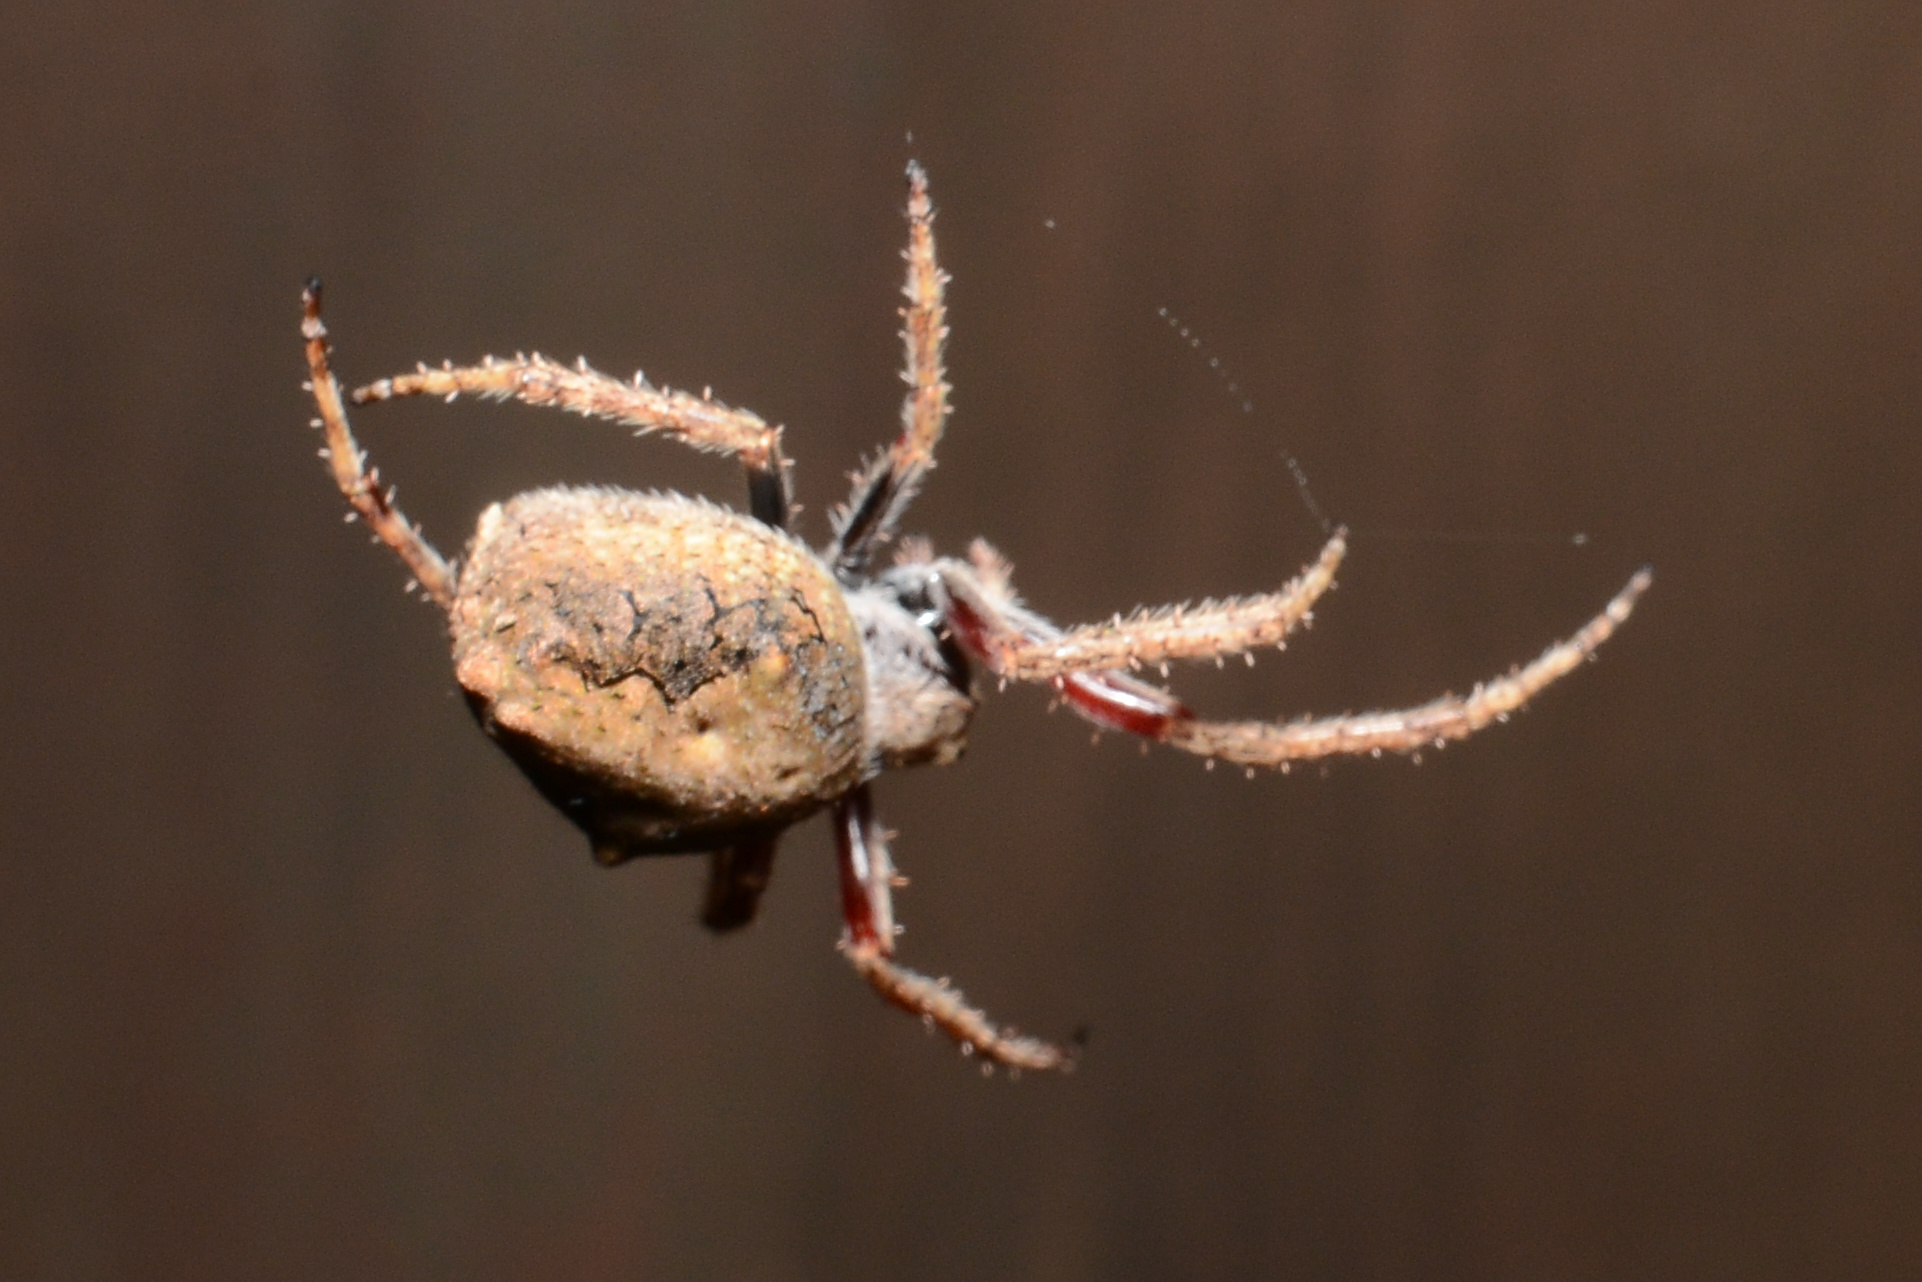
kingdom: Animalia
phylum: Arthropoda
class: Arachnida
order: Araneae
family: Araneidae
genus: Eriophora
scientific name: Eriophora pustulosa
